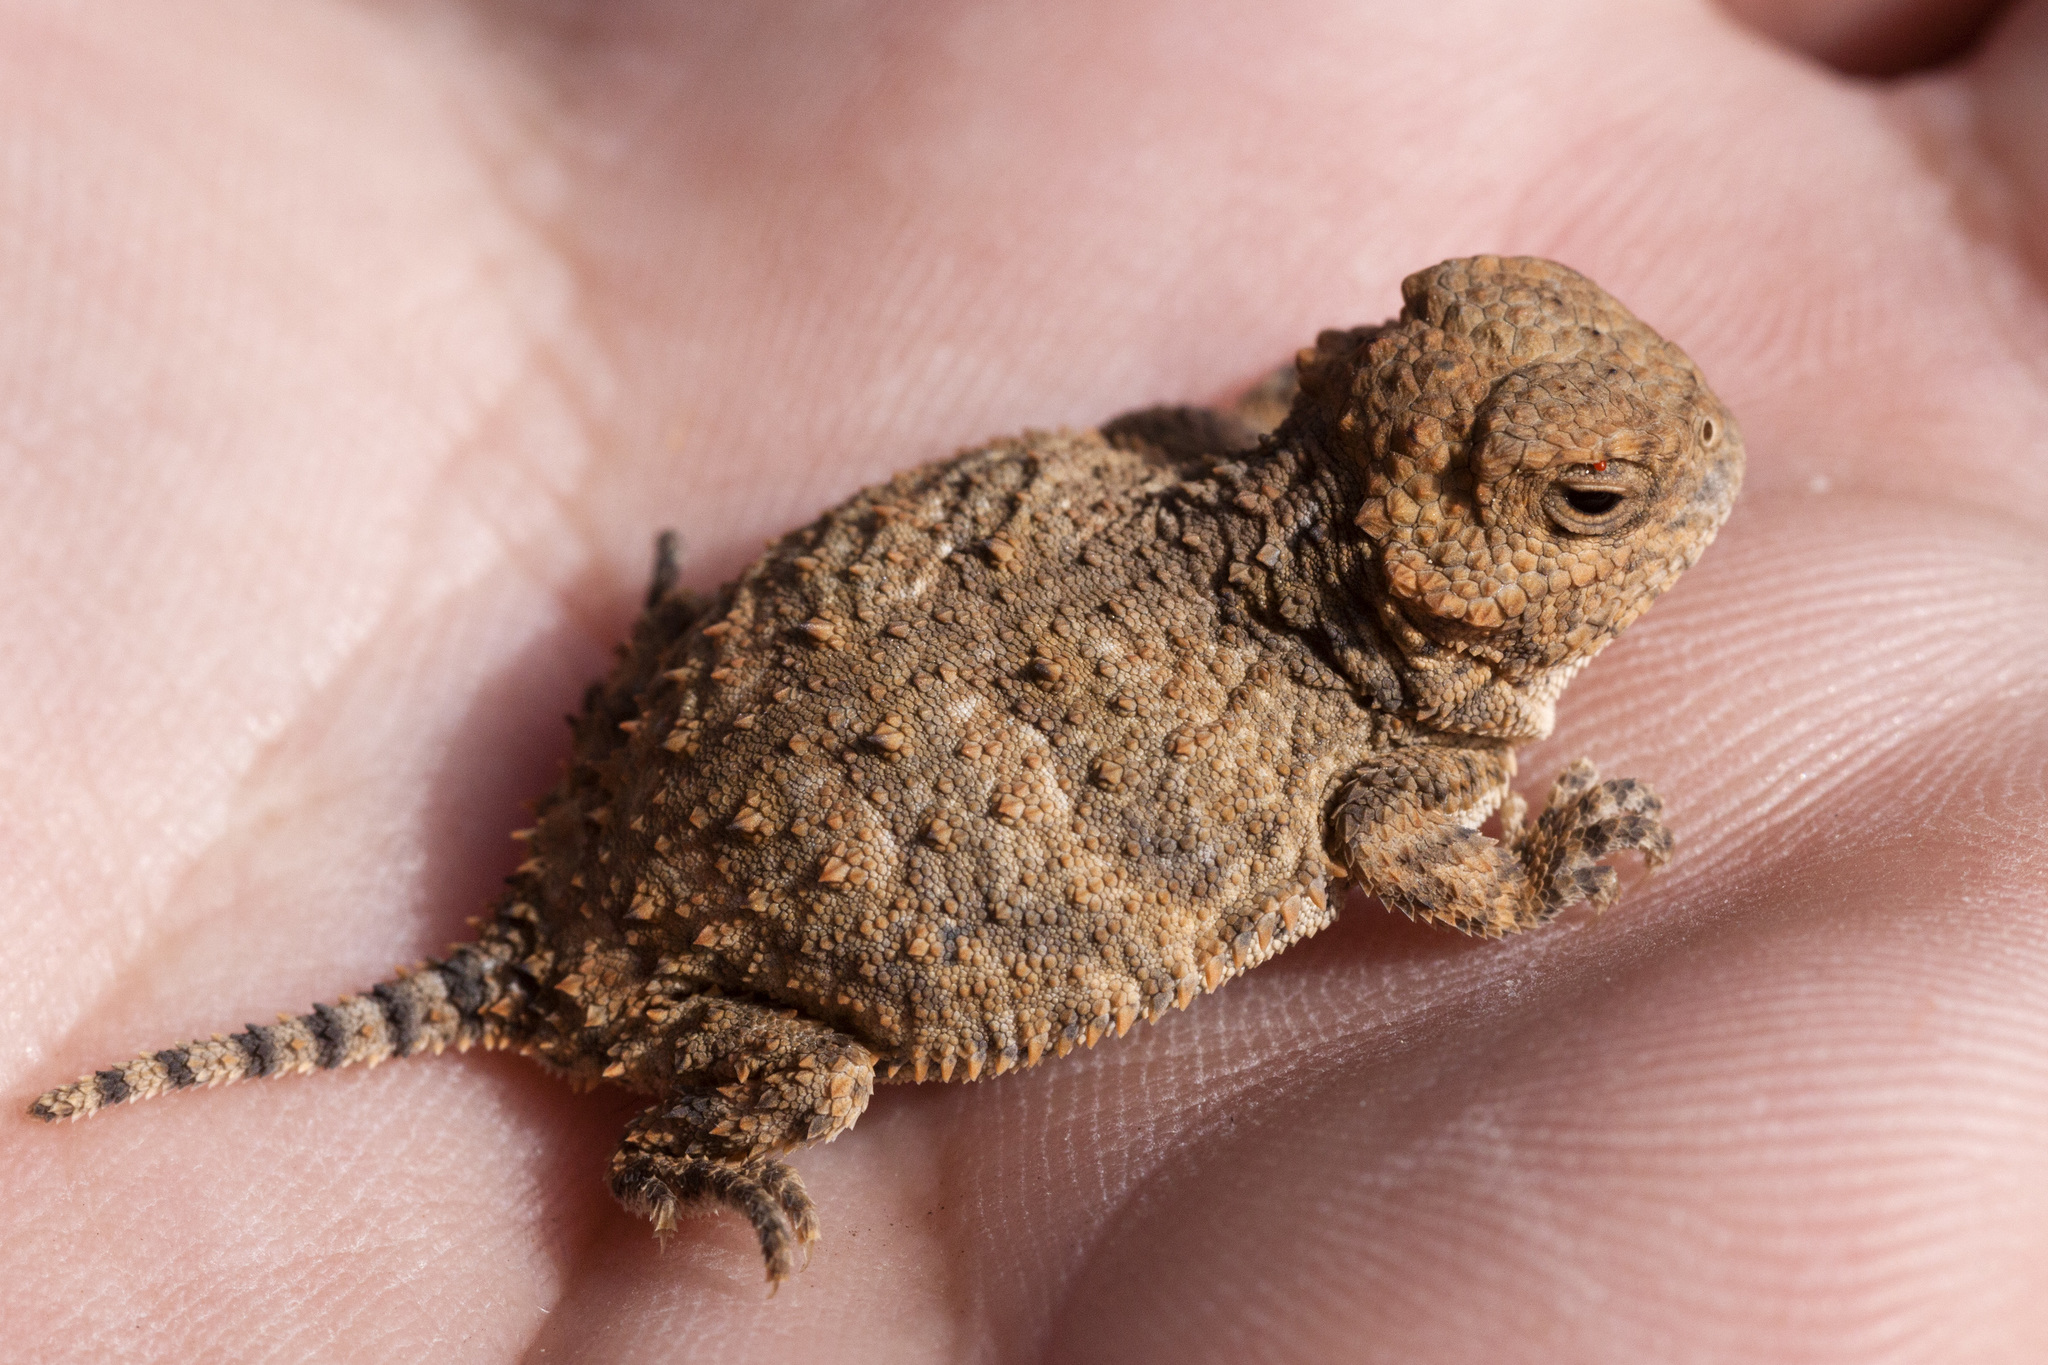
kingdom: Animalia
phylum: Chordata
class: Squamata
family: Phrynosomatidae
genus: Phrynosoma
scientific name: Phrynosoma hernandesi
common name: Greater short-horned lizard
